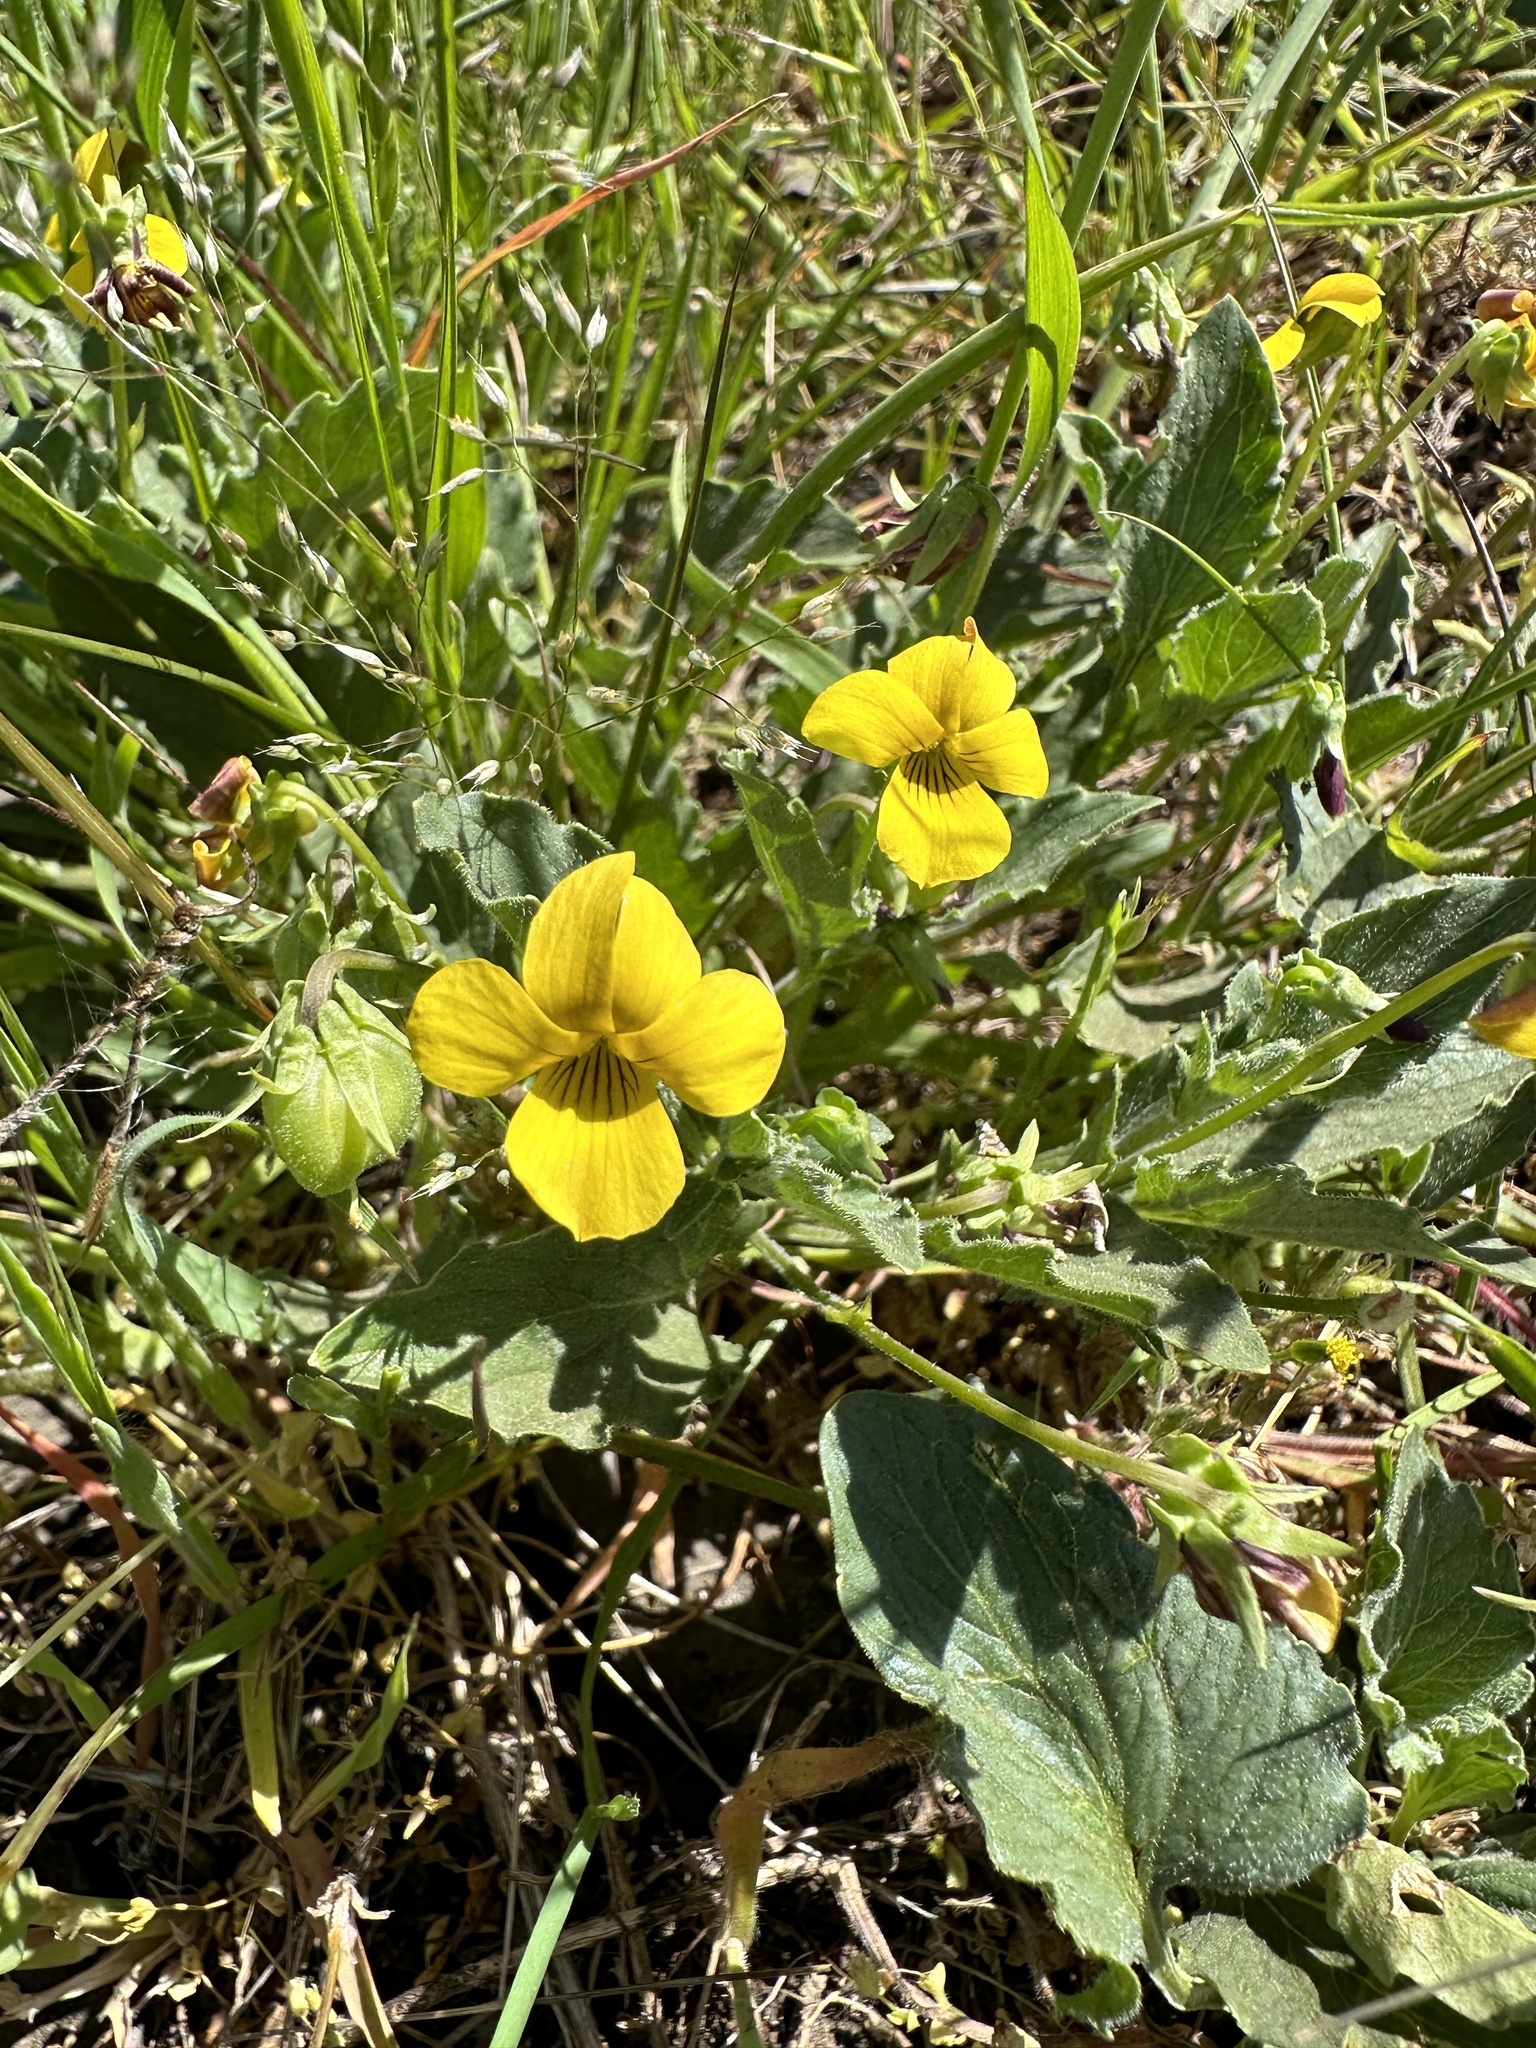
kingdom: Plantae
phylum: Tracheophyta
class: Magnoliopsida
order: Malpighiales
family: Violaceae
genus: Viola
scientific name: Viola quercetorum
